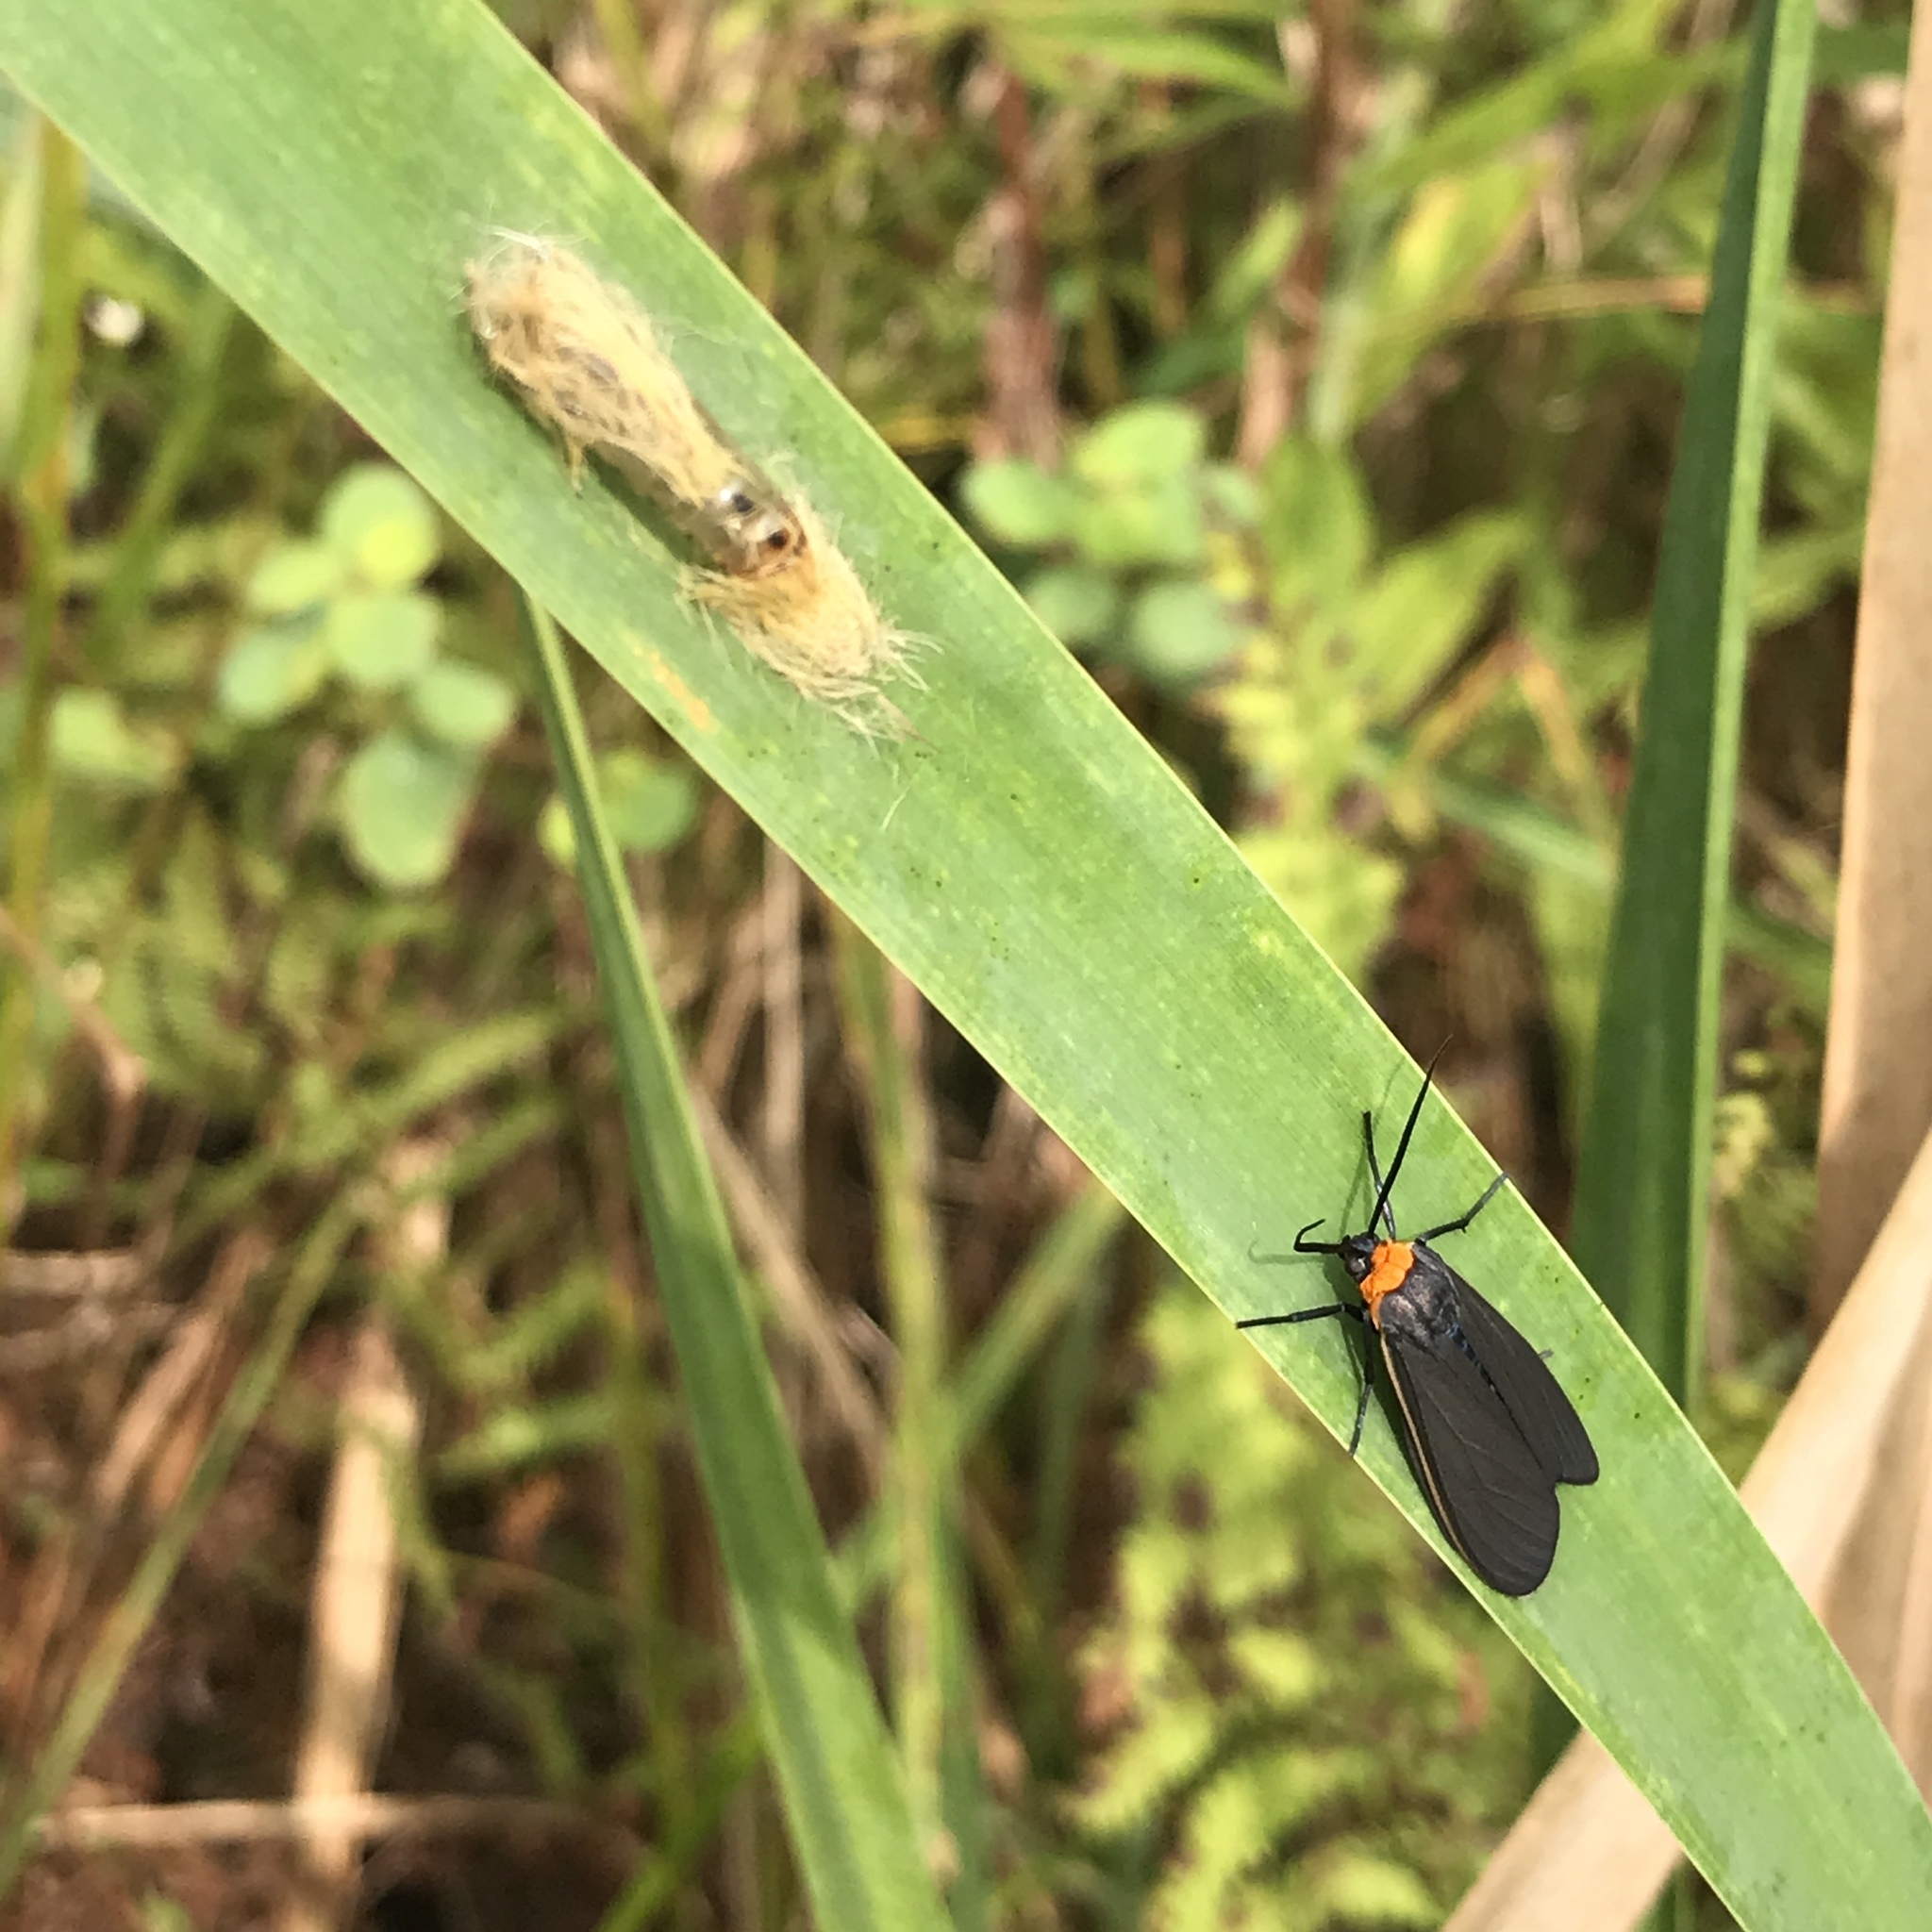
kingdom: Animalia
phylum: Arthropoda
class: Insecta
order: Lepidoptera
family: Erebidae
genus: Cisseps
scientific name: Cisseps fulvicollis
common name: Yellow-collared scape moth
